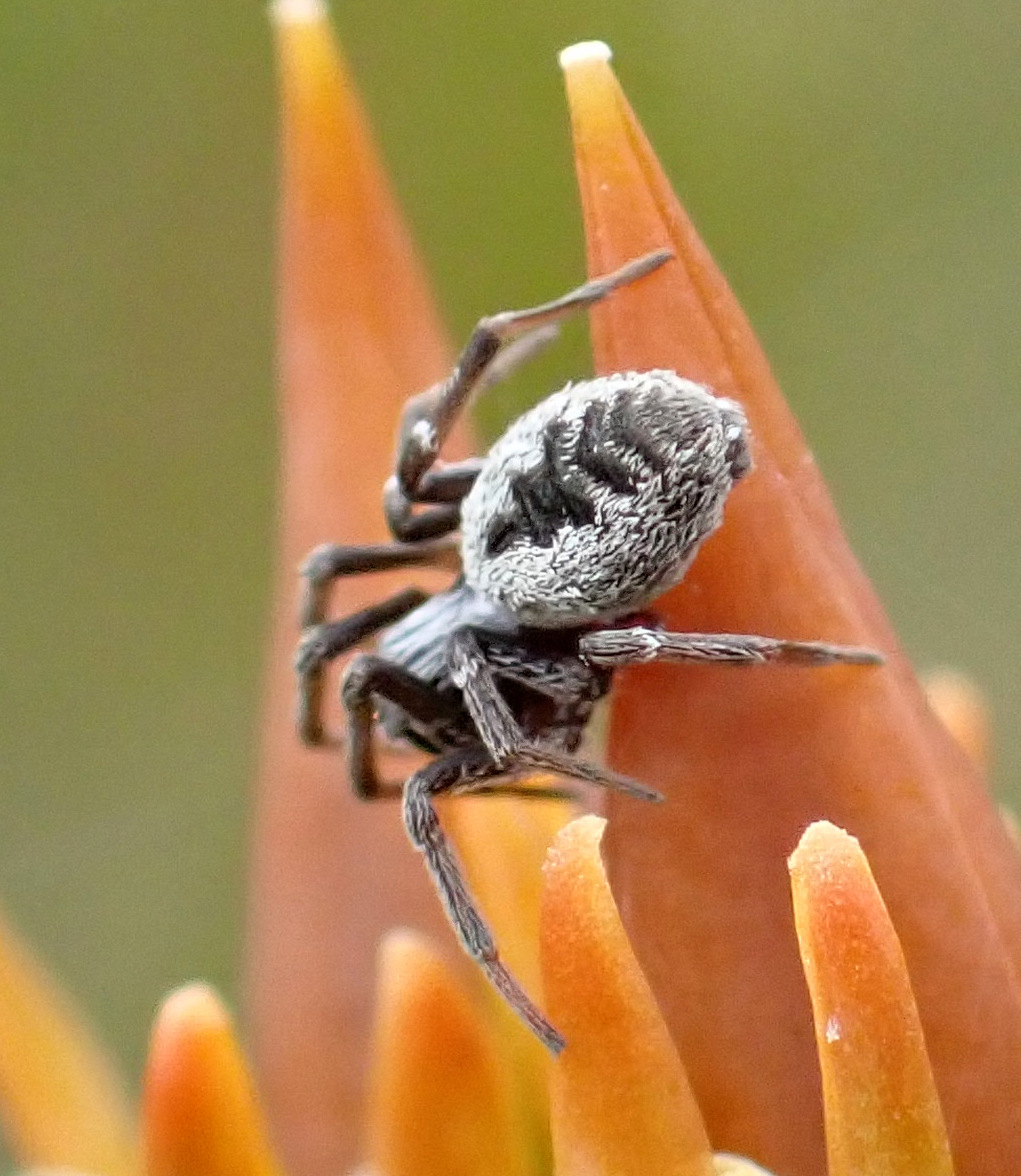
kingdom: Animalia
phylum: Arthropoda
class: Arachnida
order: Araneae
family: Dictynidae
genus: Brigittea
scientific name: Brigittea latens
